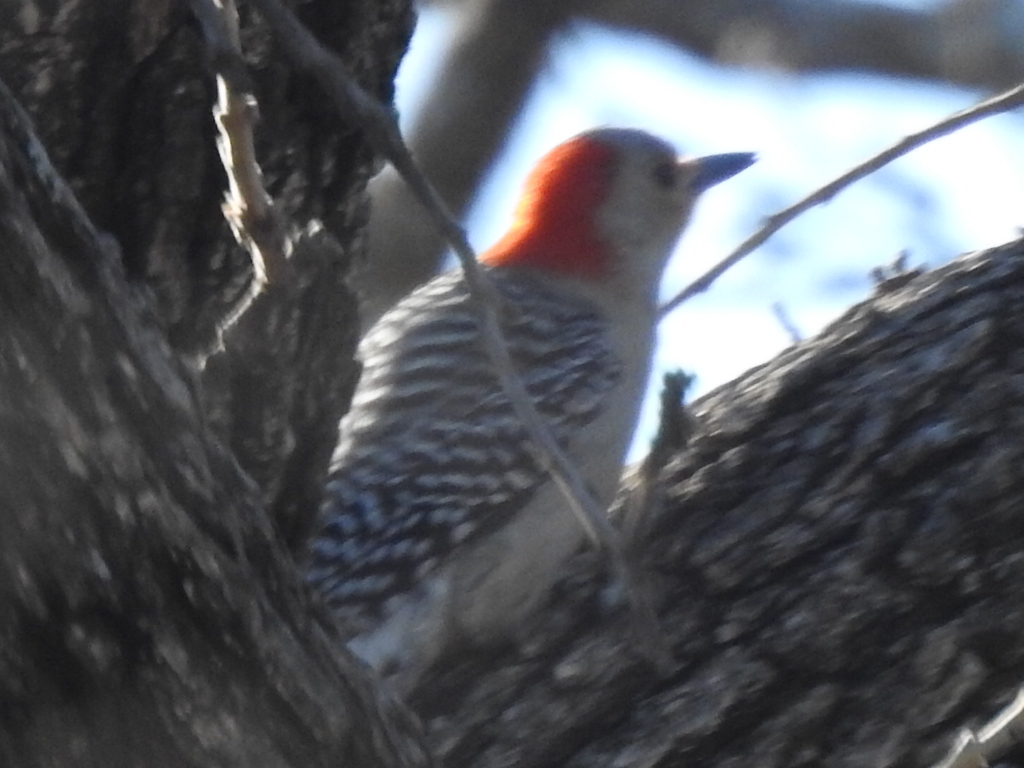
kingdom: Animalia
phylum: Chordata
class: Aves
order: Piciformes
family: Picidae
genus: Melanerpes
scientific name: Melanerpes carolinus
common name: Red-bellied woodpecker
